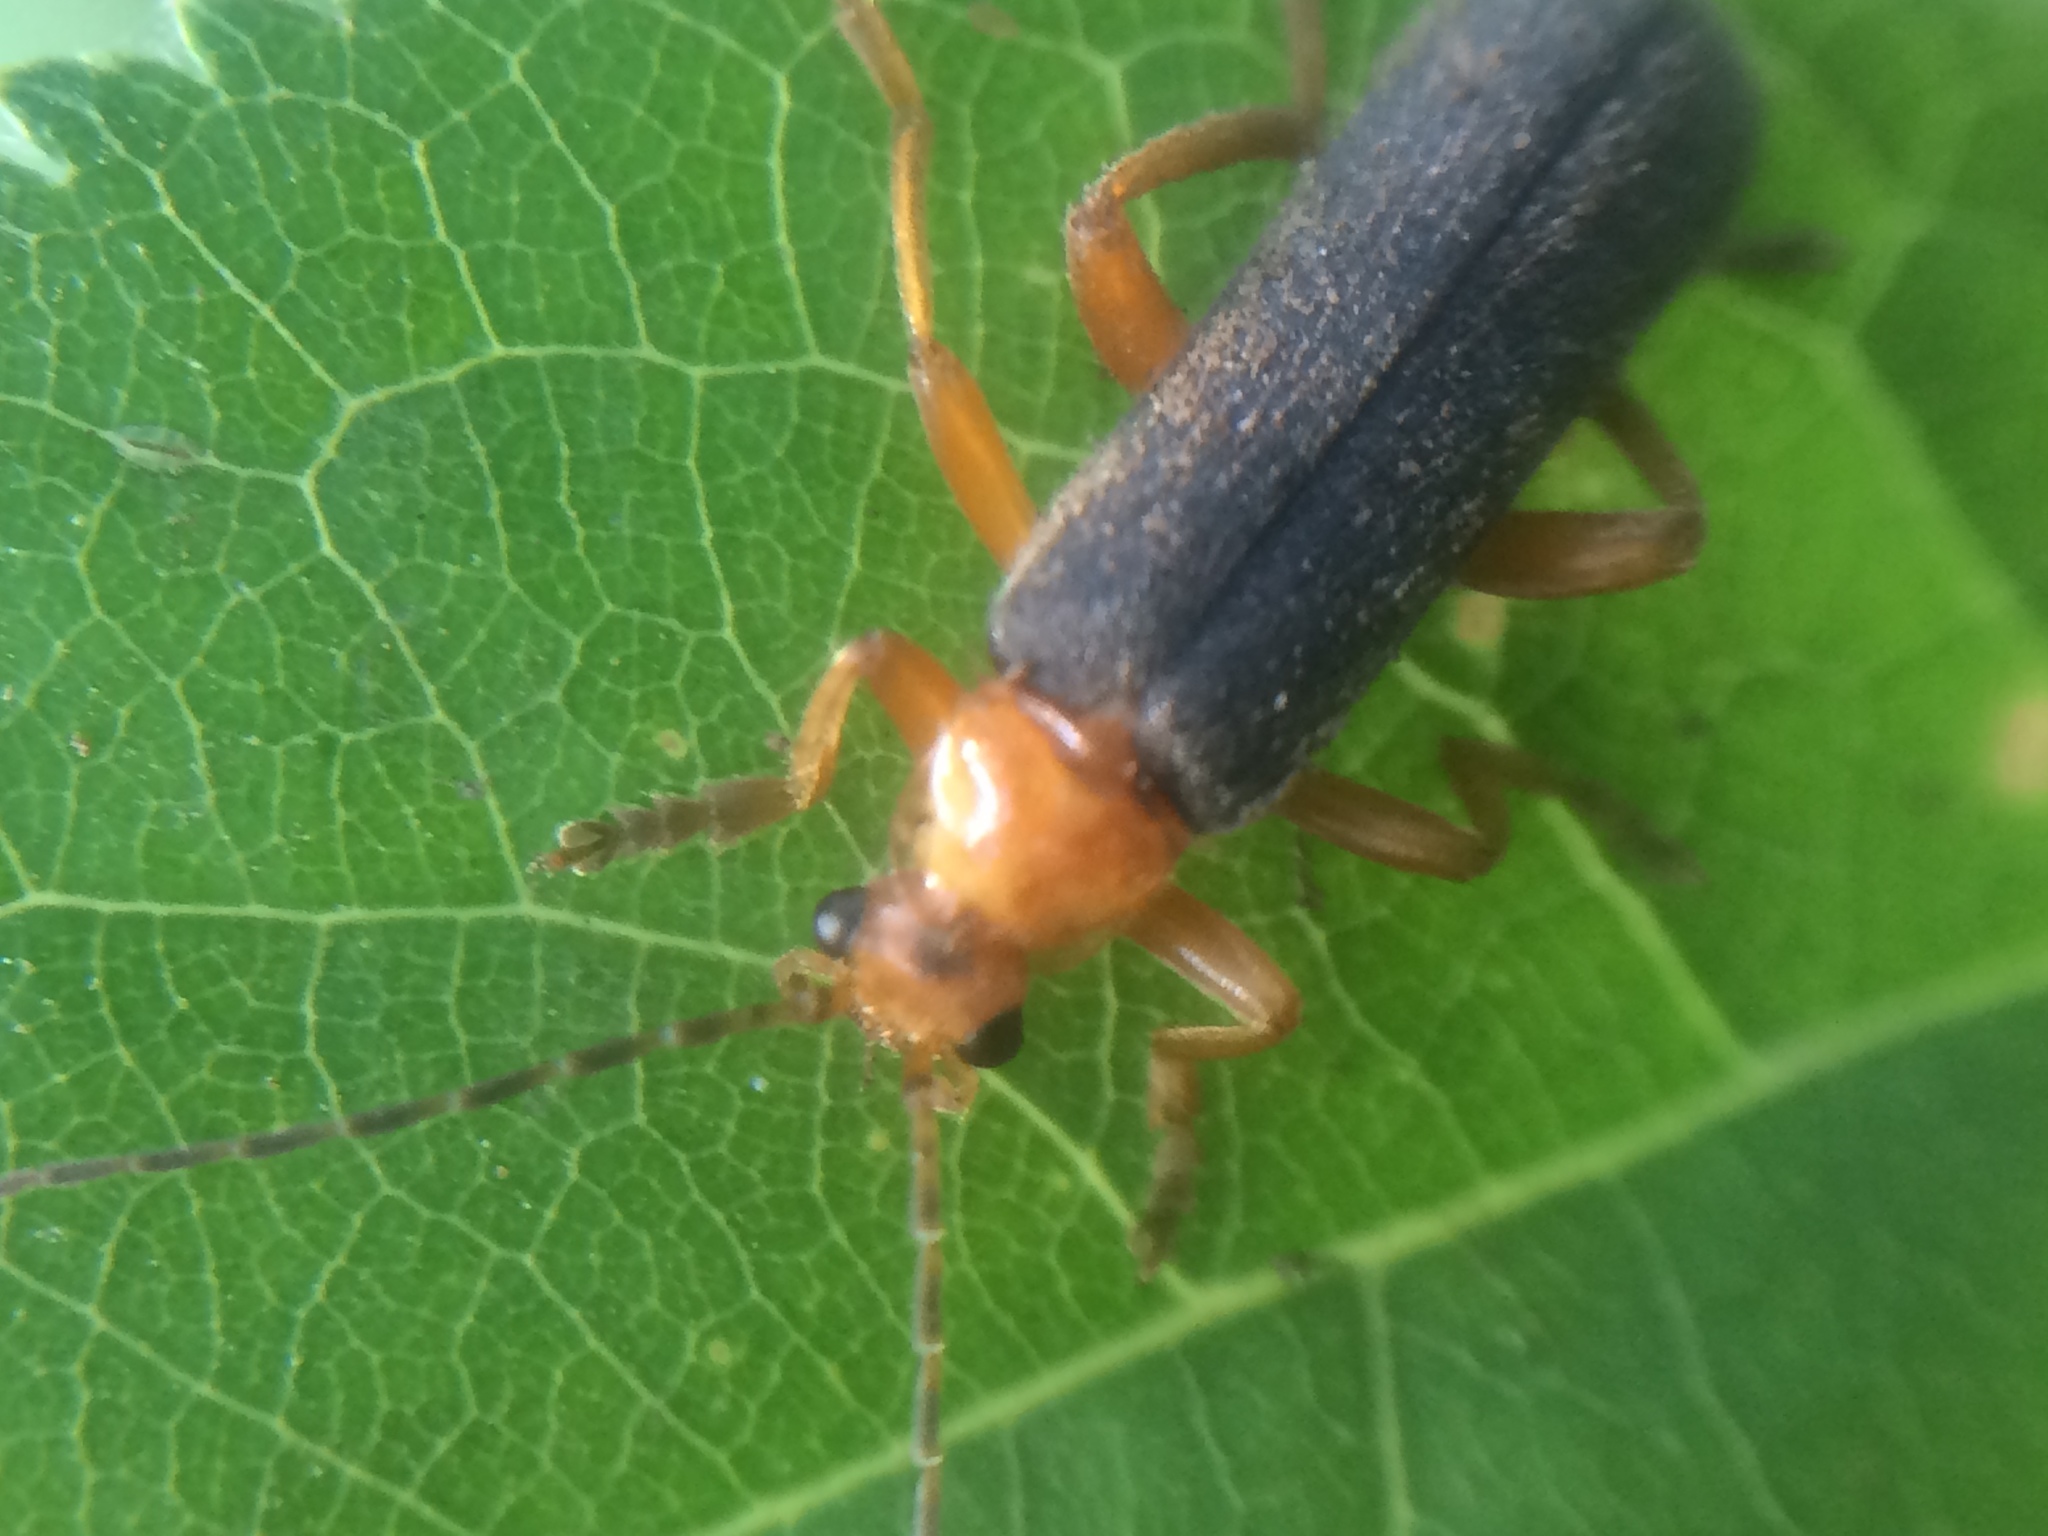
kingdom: Animalia
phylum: Arthropoda
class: Insecta
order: Coleoptera
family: Cantharidae
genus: Cultellunguis
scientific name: Cultellunguis perpallens
